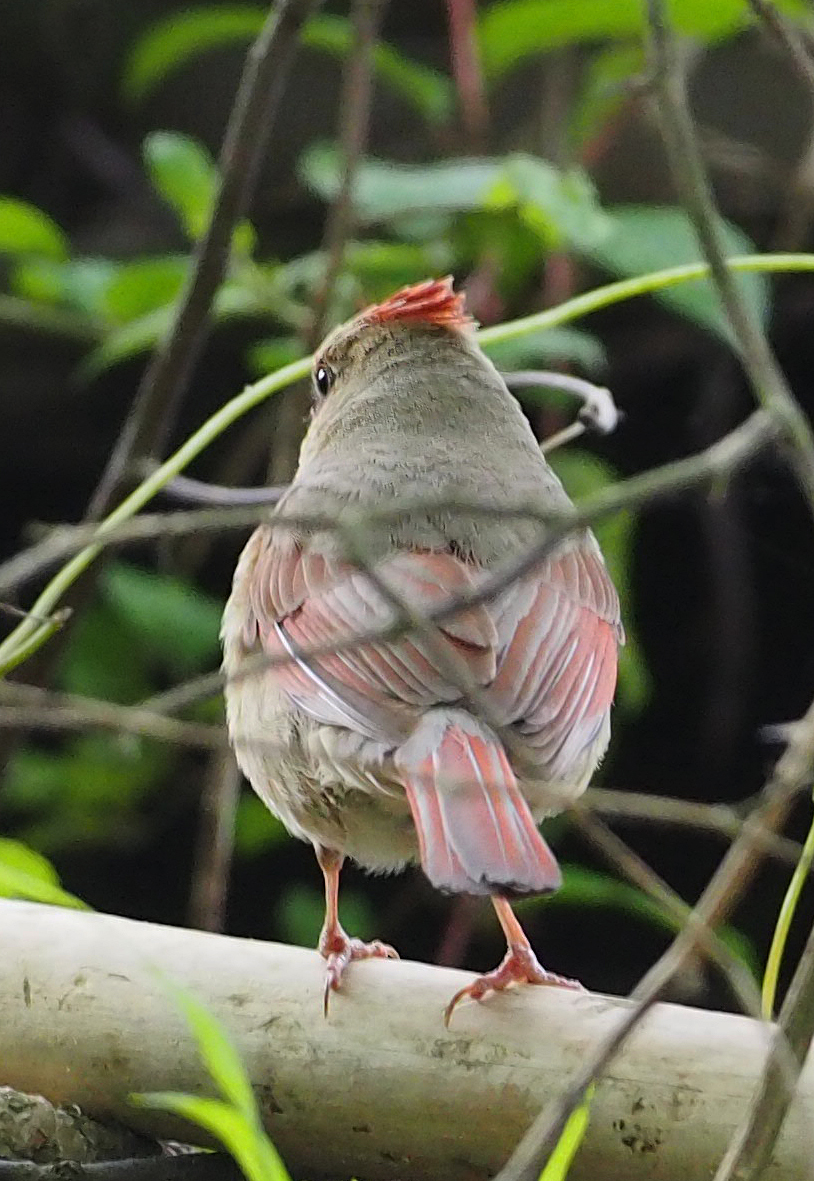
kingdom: Animalia
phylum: Chordata
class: Aves
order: Passeriformes
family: Cardinalidae
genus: Cardinalis
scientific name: Cardinalis cardinalis
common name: Northern cardinal
